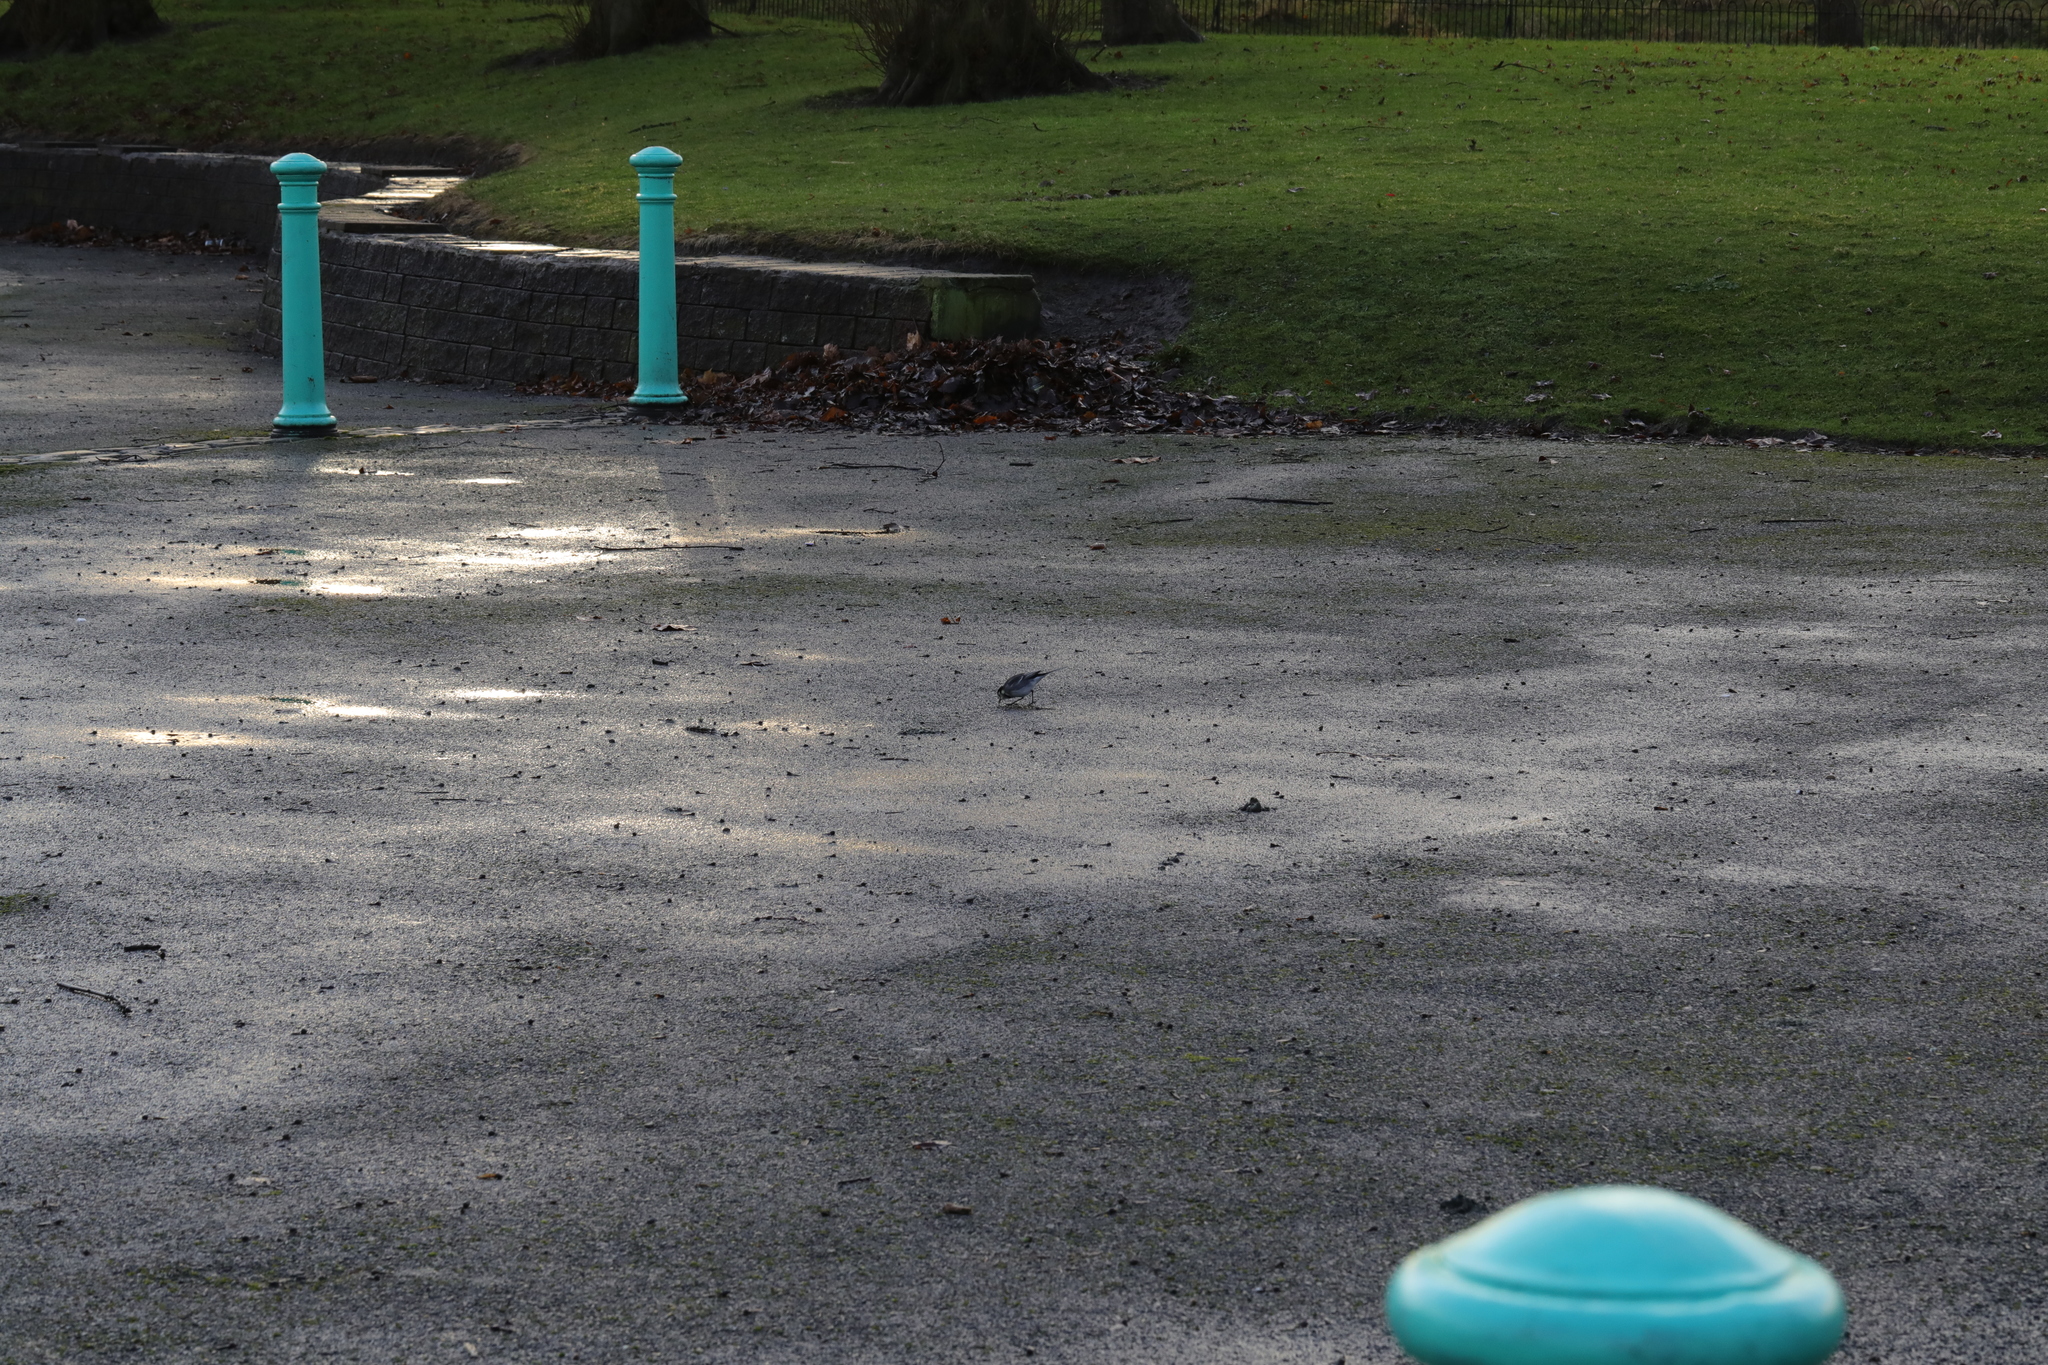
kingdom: Animalia
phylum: Chordata
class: Aves
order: Passeriformes
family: Motacillidae
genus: Motacilla
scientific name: Motacilla alba
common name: White wagtail
